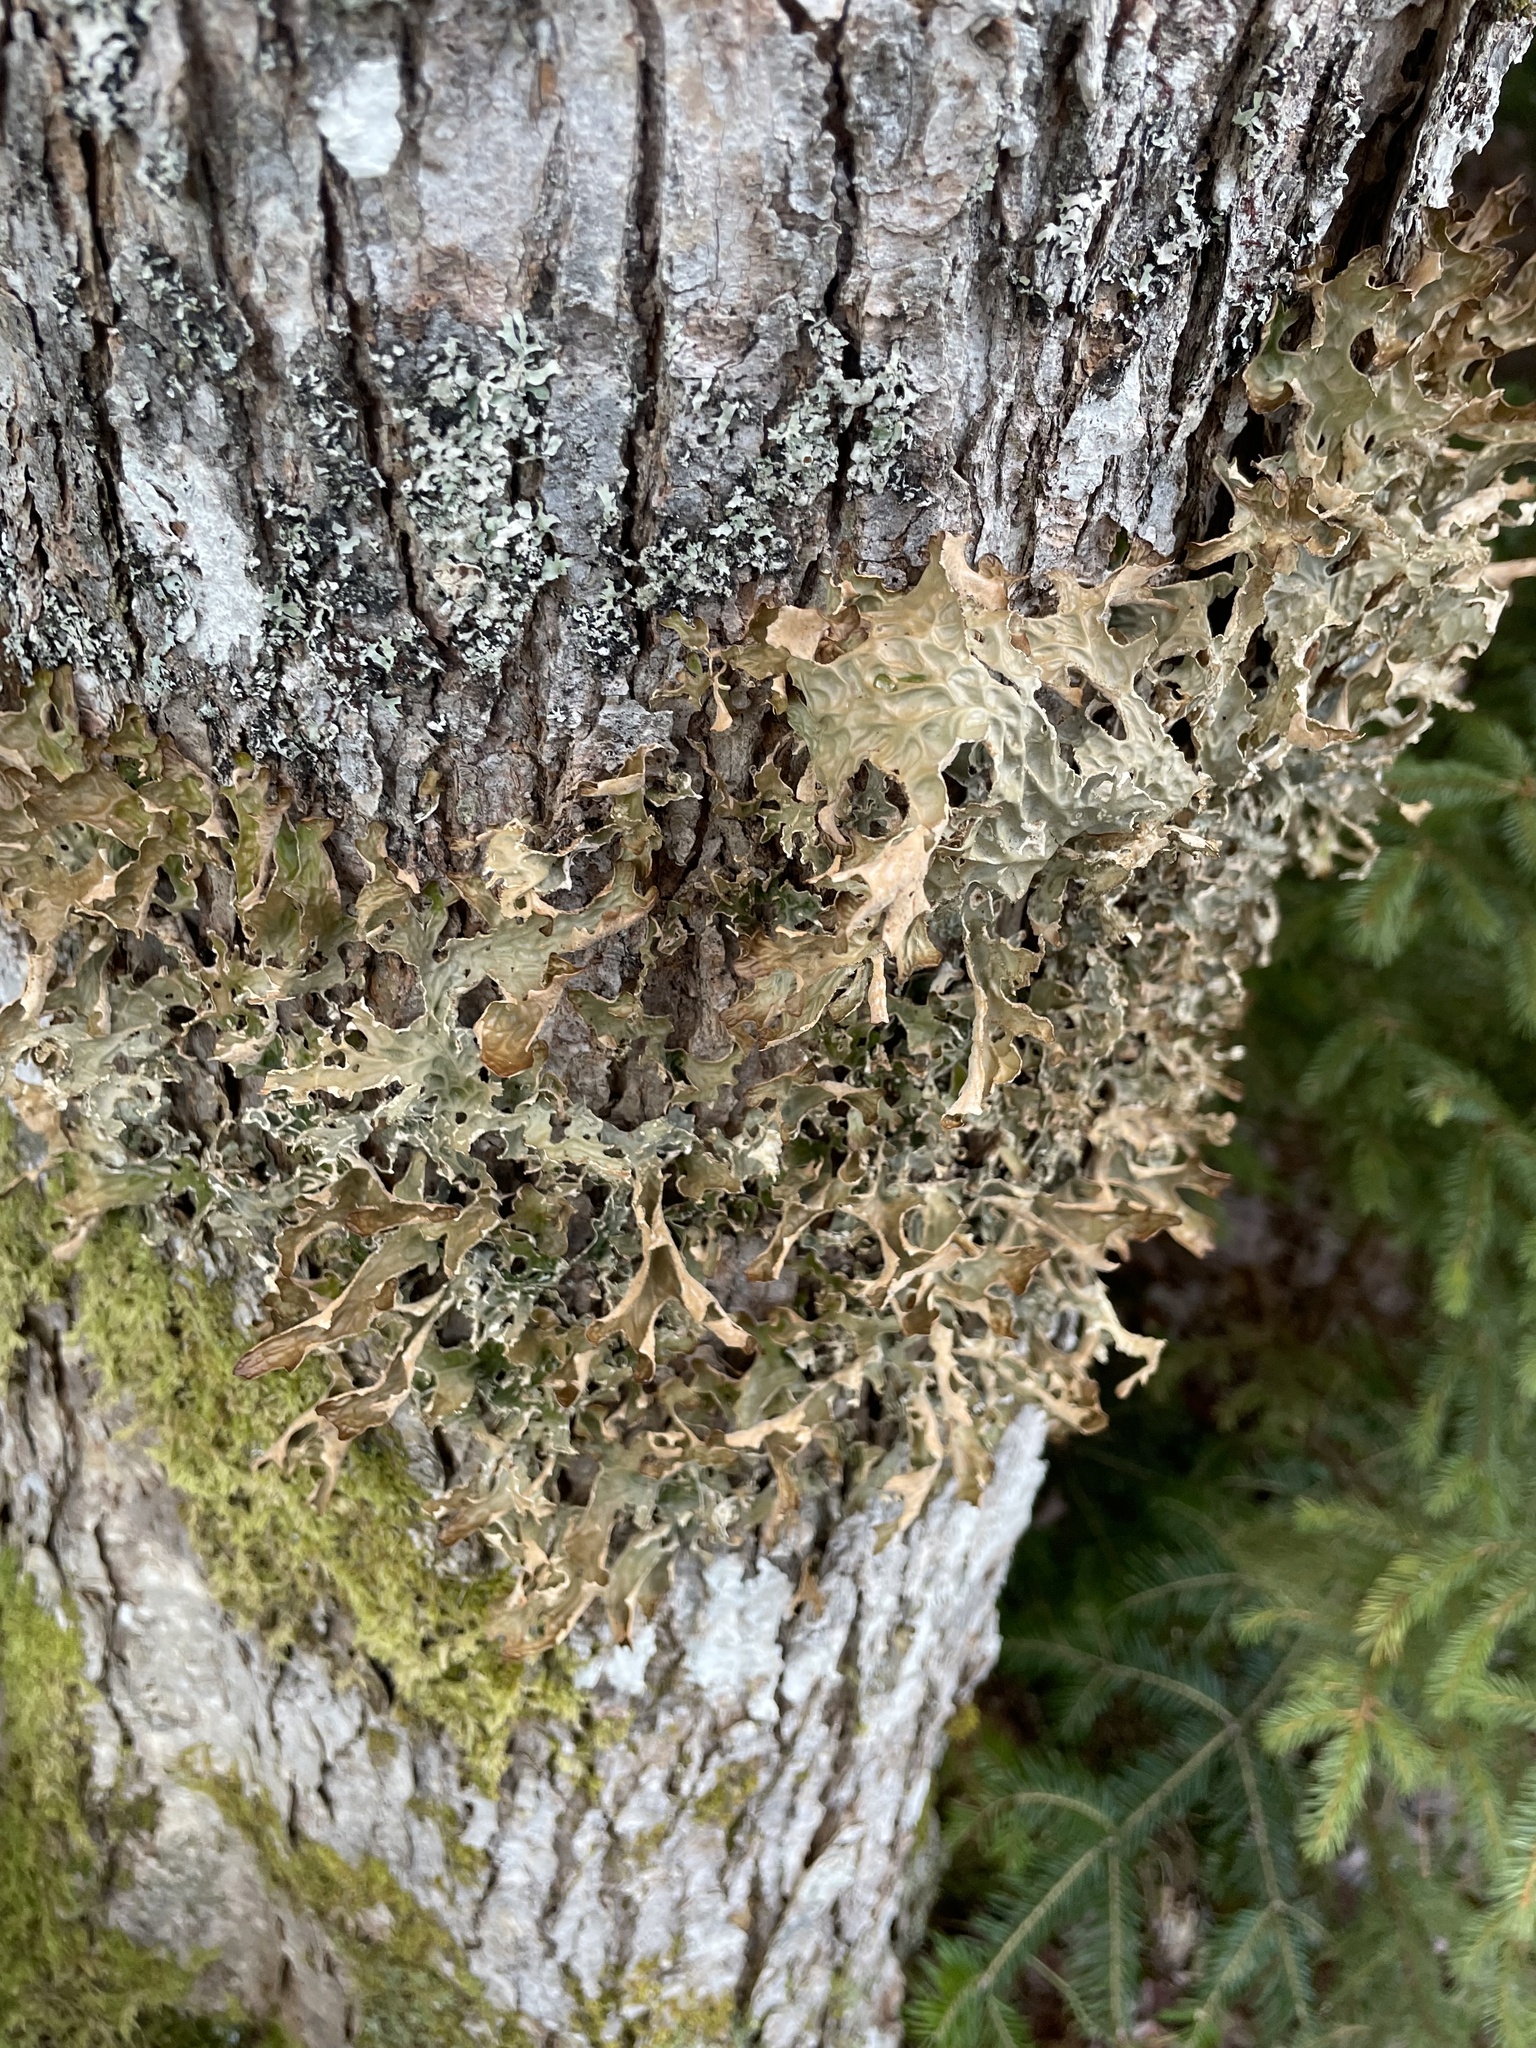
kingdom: Fungi
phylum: Ascomycota
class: Lecanoromycetes
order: Peltigerales
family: Lobariaceae
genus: Lobaria
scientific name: Lobaria pulmonaria
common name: Lungwort
